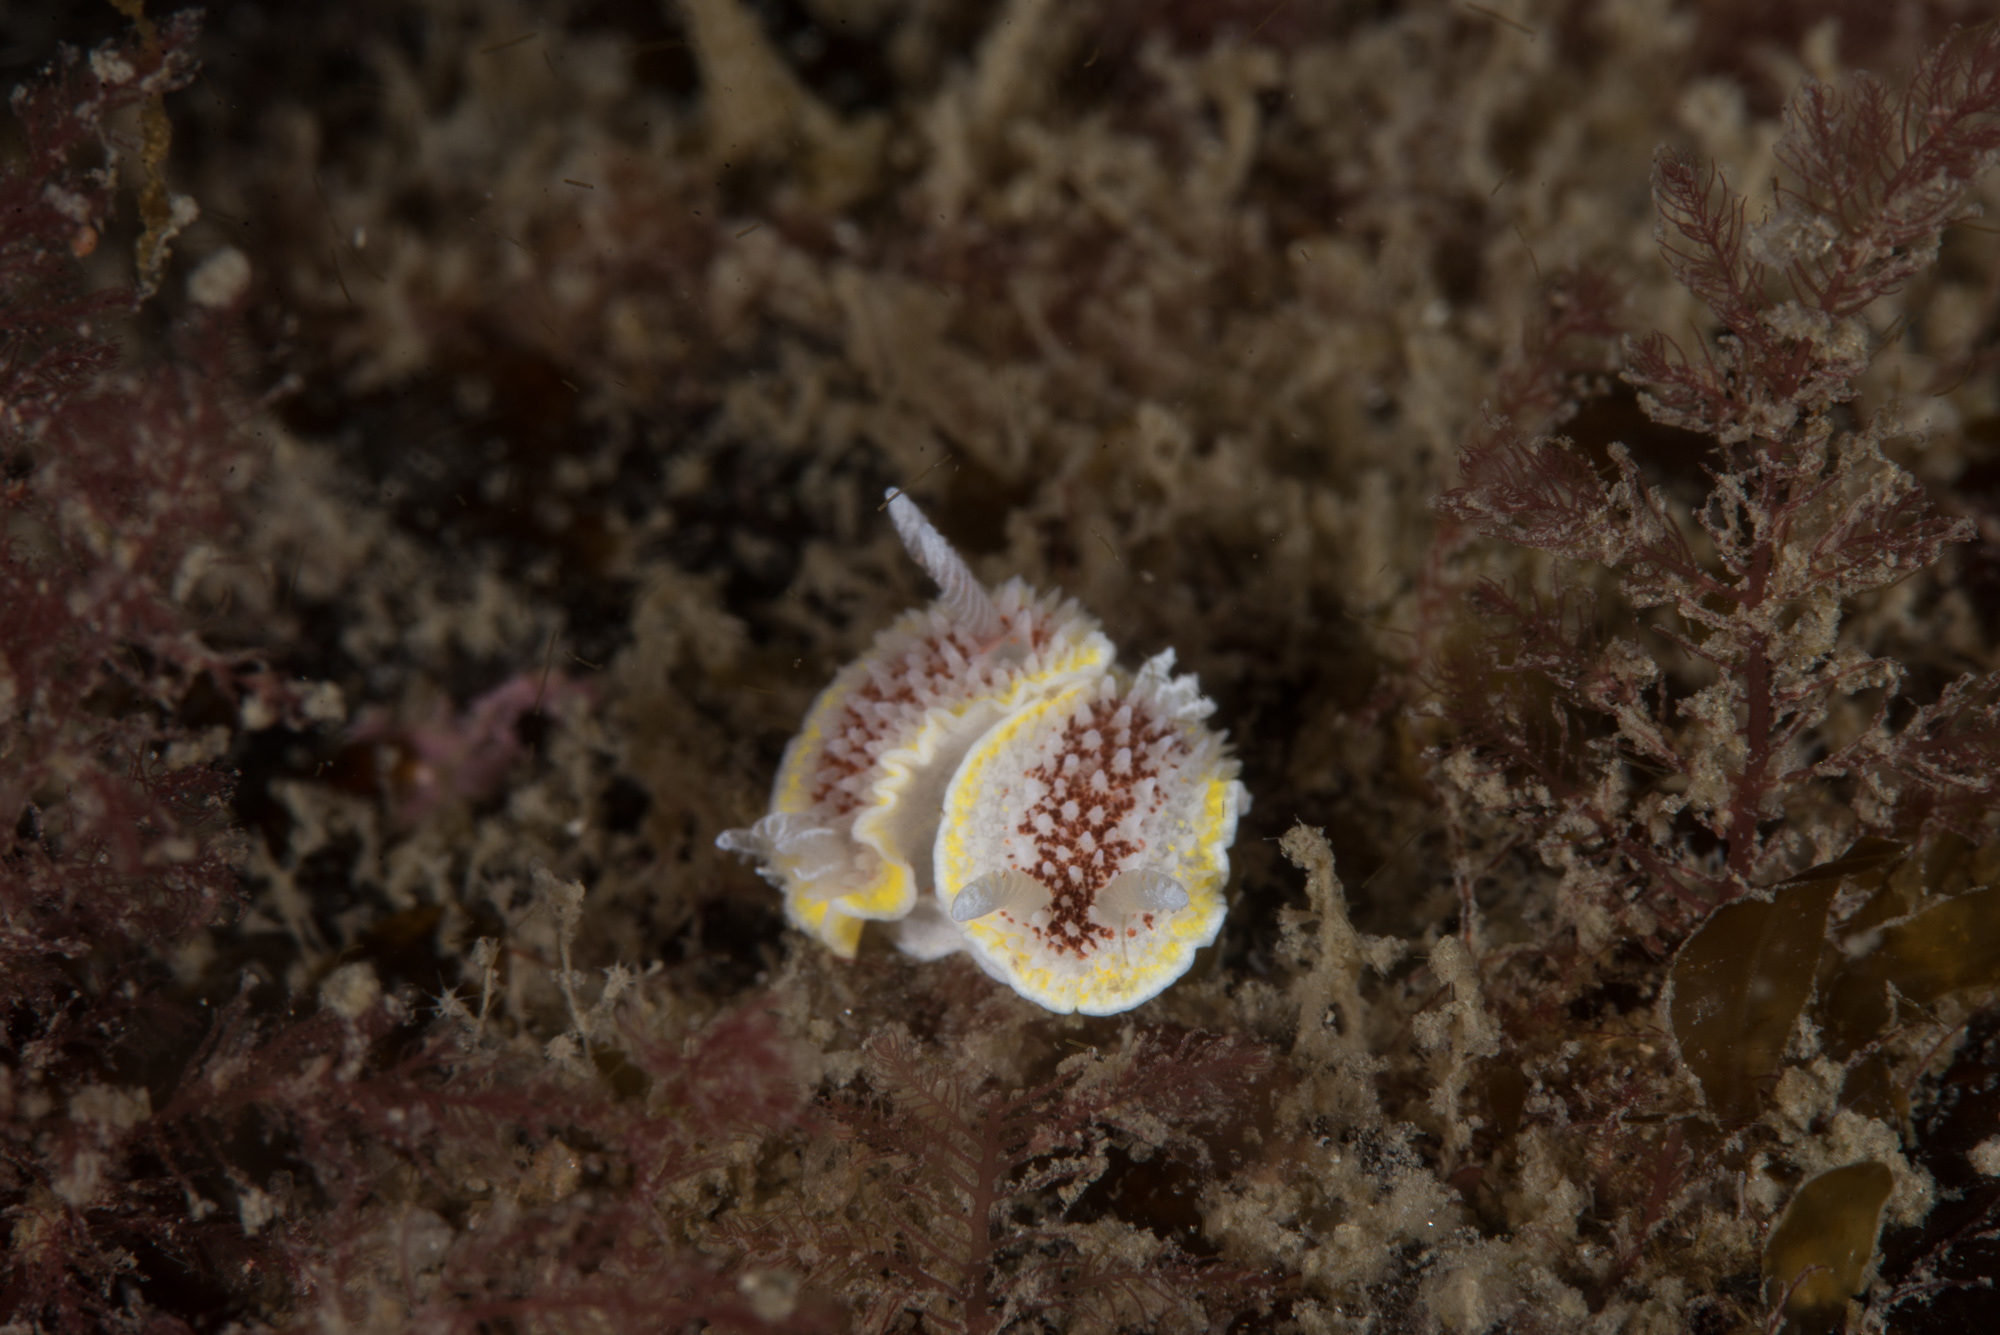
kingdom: Animalia
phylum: Mollusca
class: Gastropoda
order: Nudibranchia
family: Calycidorididae
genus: Diaphorodoris
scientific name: Diaphorodoris luteocincta
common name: Fried egg nudibranch
